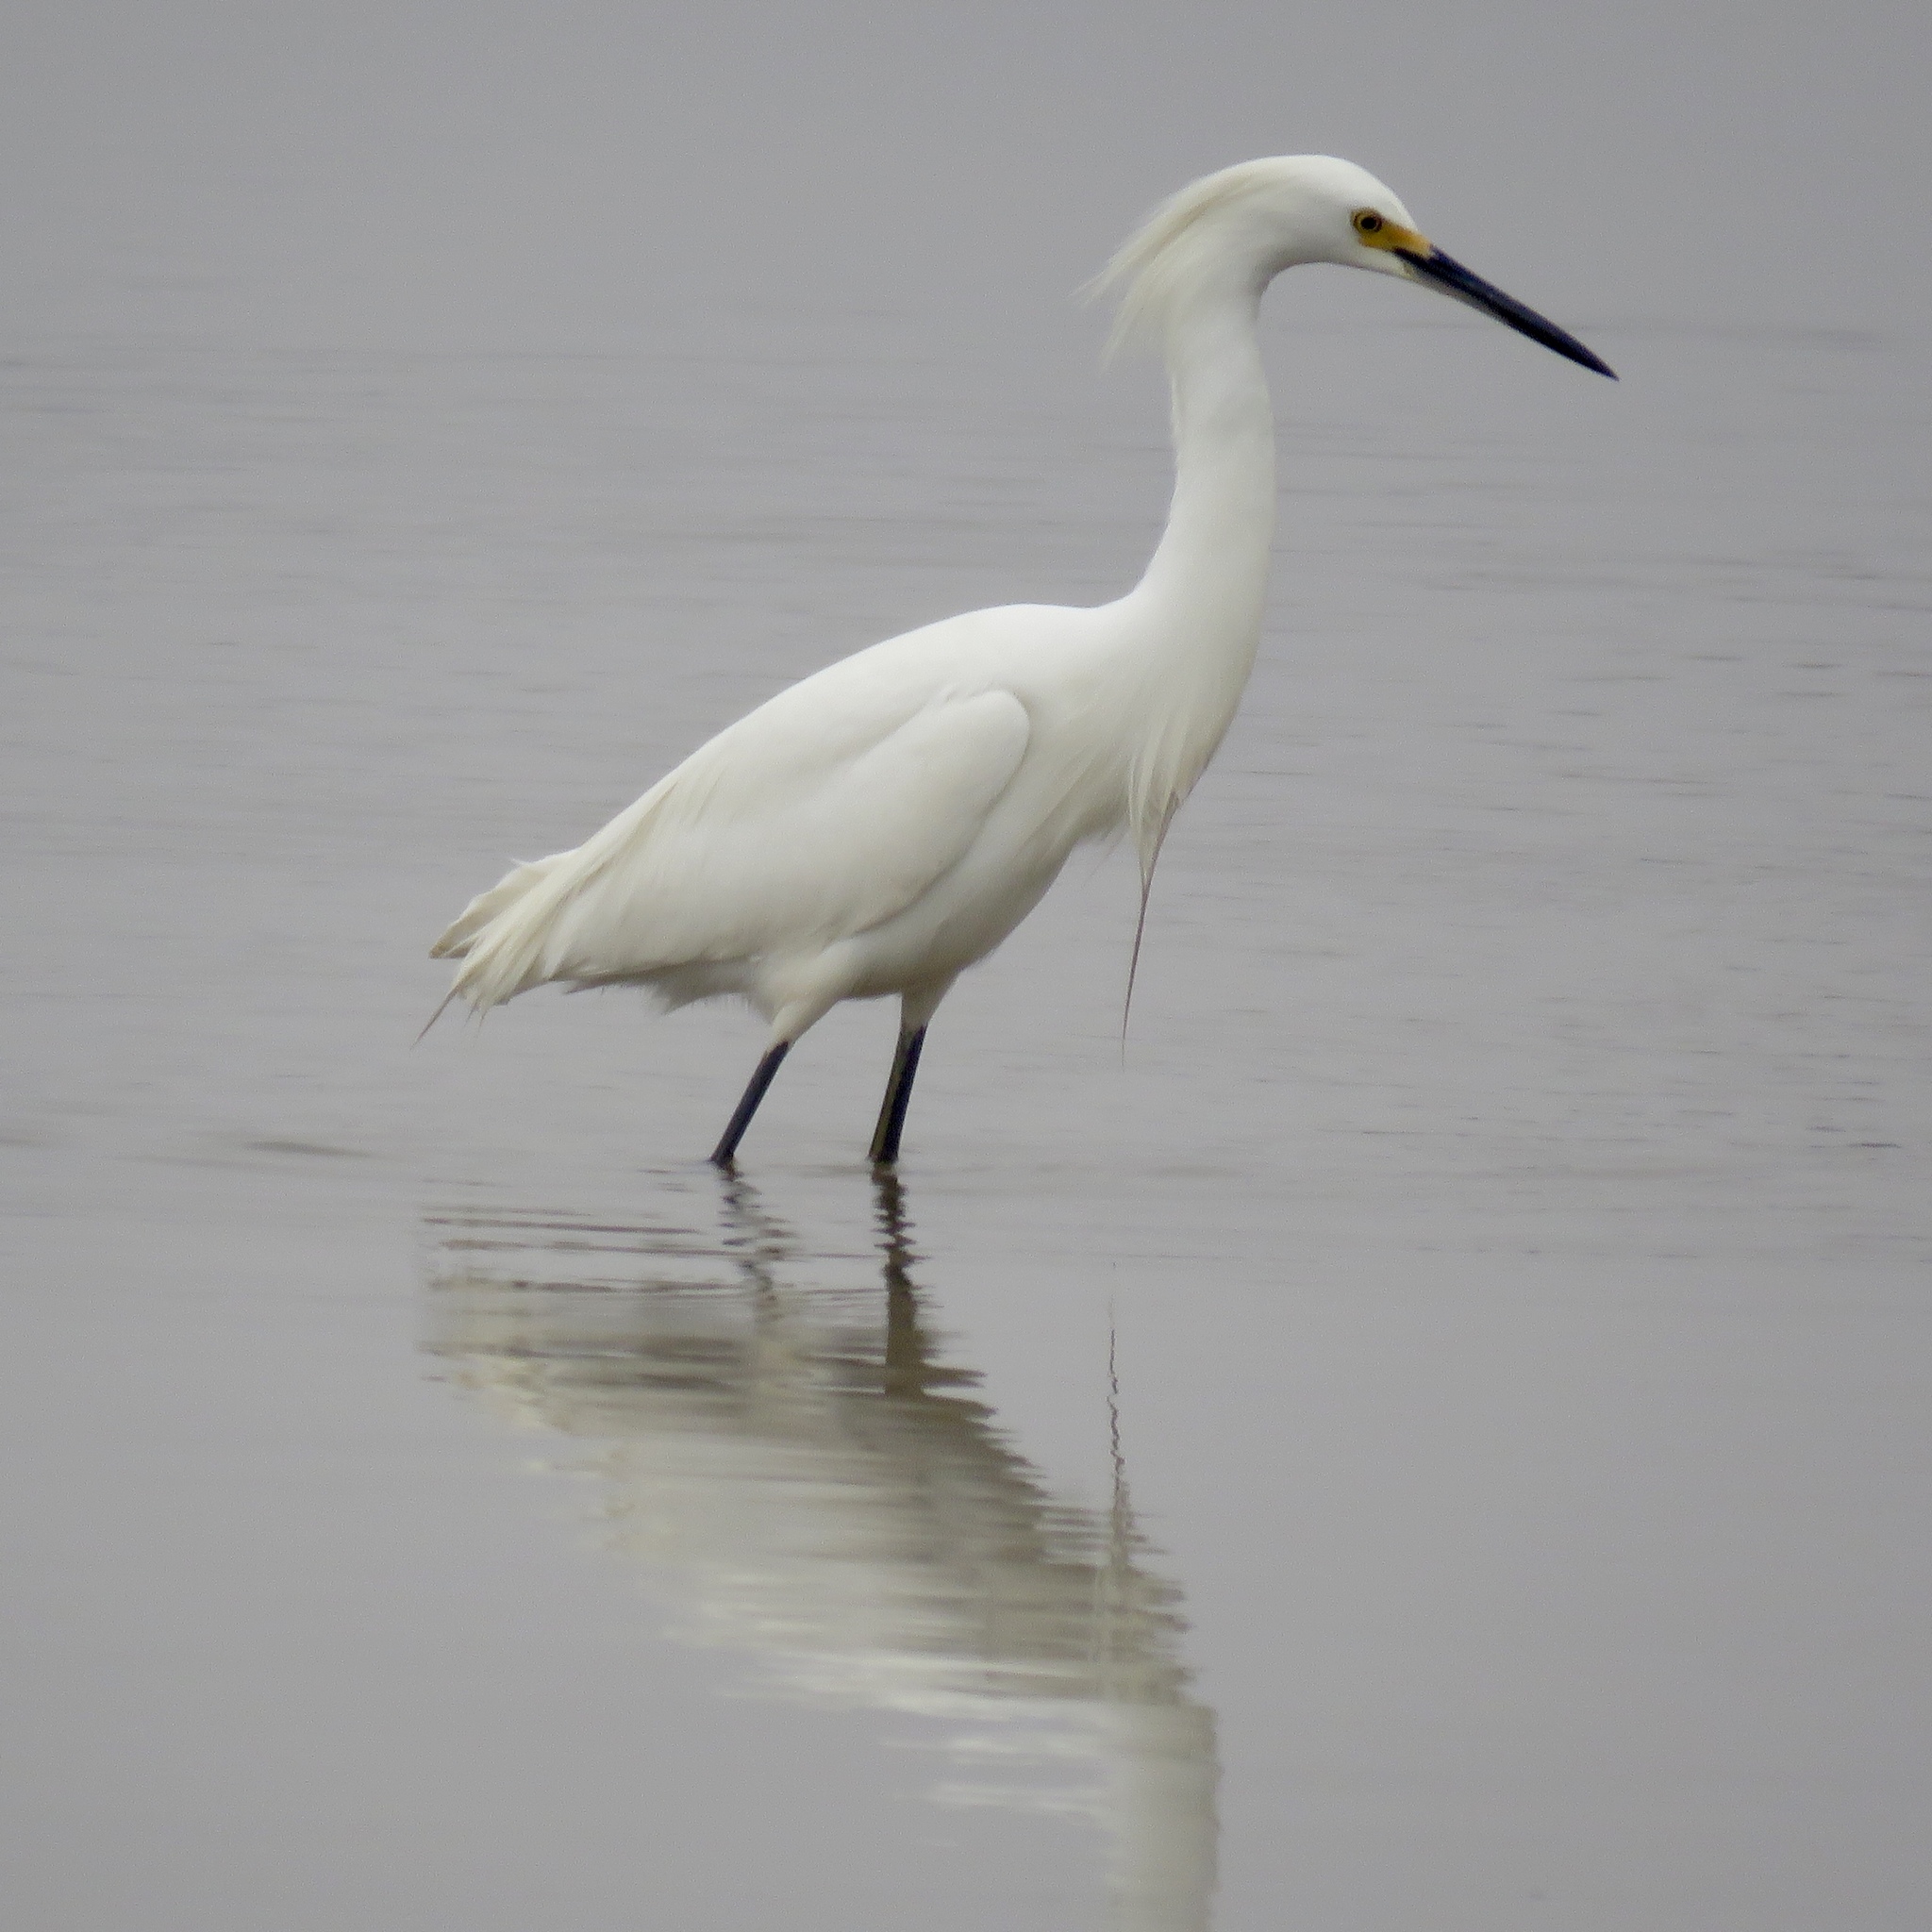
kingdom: Animalia
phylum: Chordata
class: Aves
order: Pelecaniformes
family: Ardeidae
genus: Egretta
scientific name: Egretta thula
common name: Snowy egret
